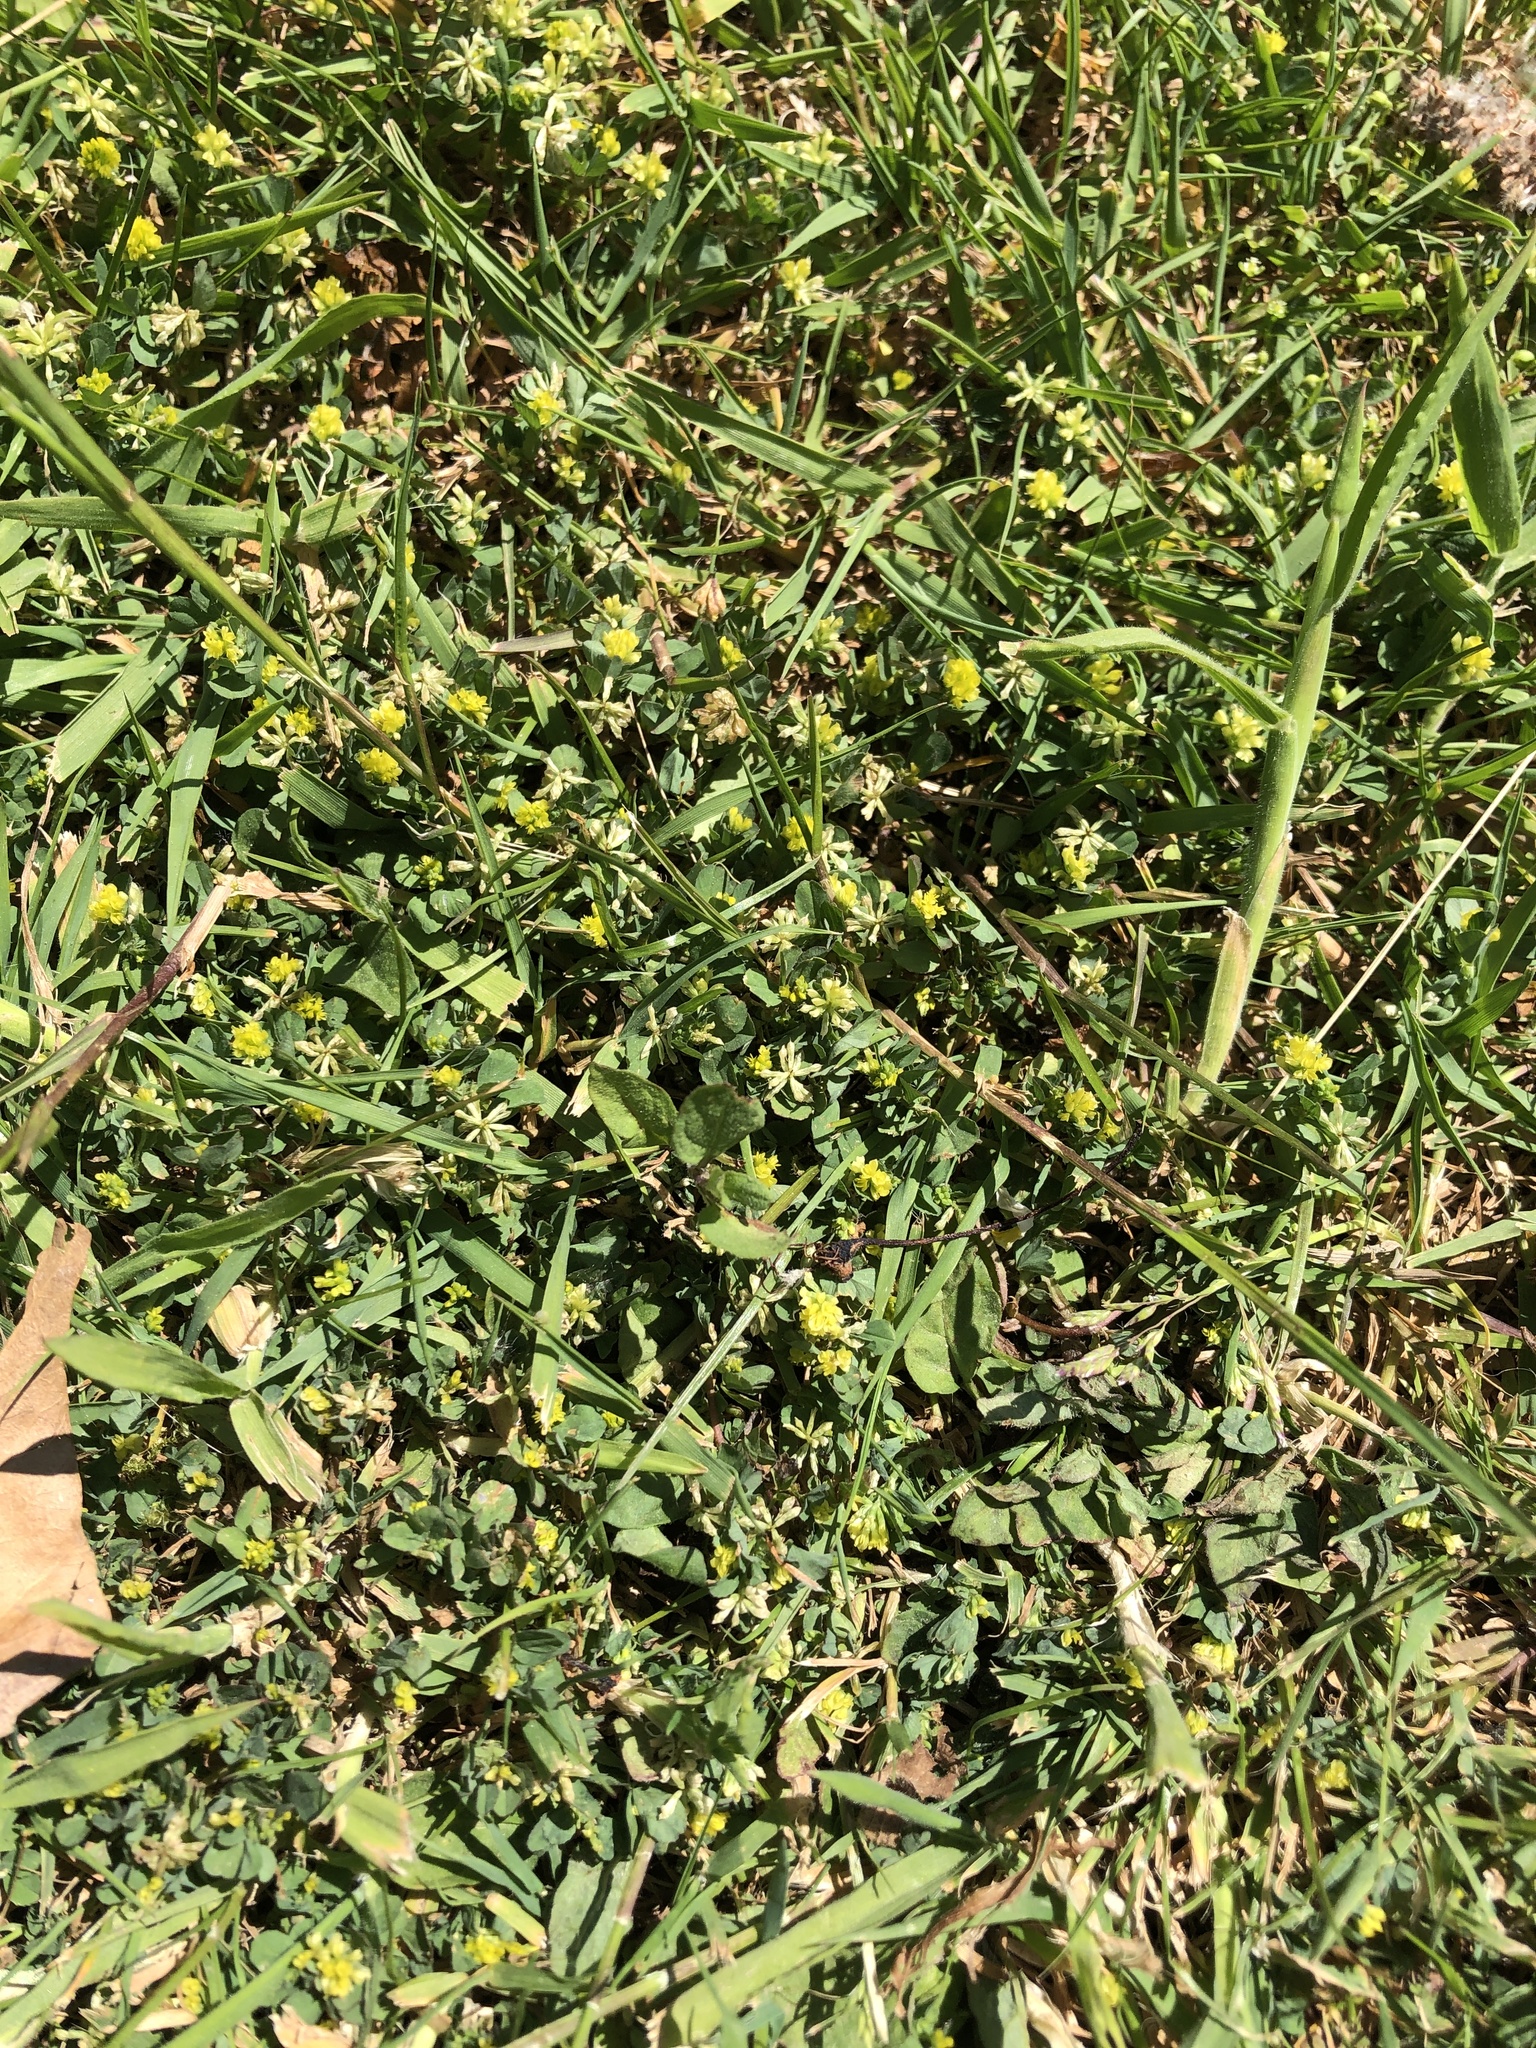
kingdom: Plantae
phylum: Tracheophyta
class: Magnoliopsida
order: Fabales
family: Fabaceae
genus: Trifolium
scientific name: Trifolium dubium
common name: Suckling clover
